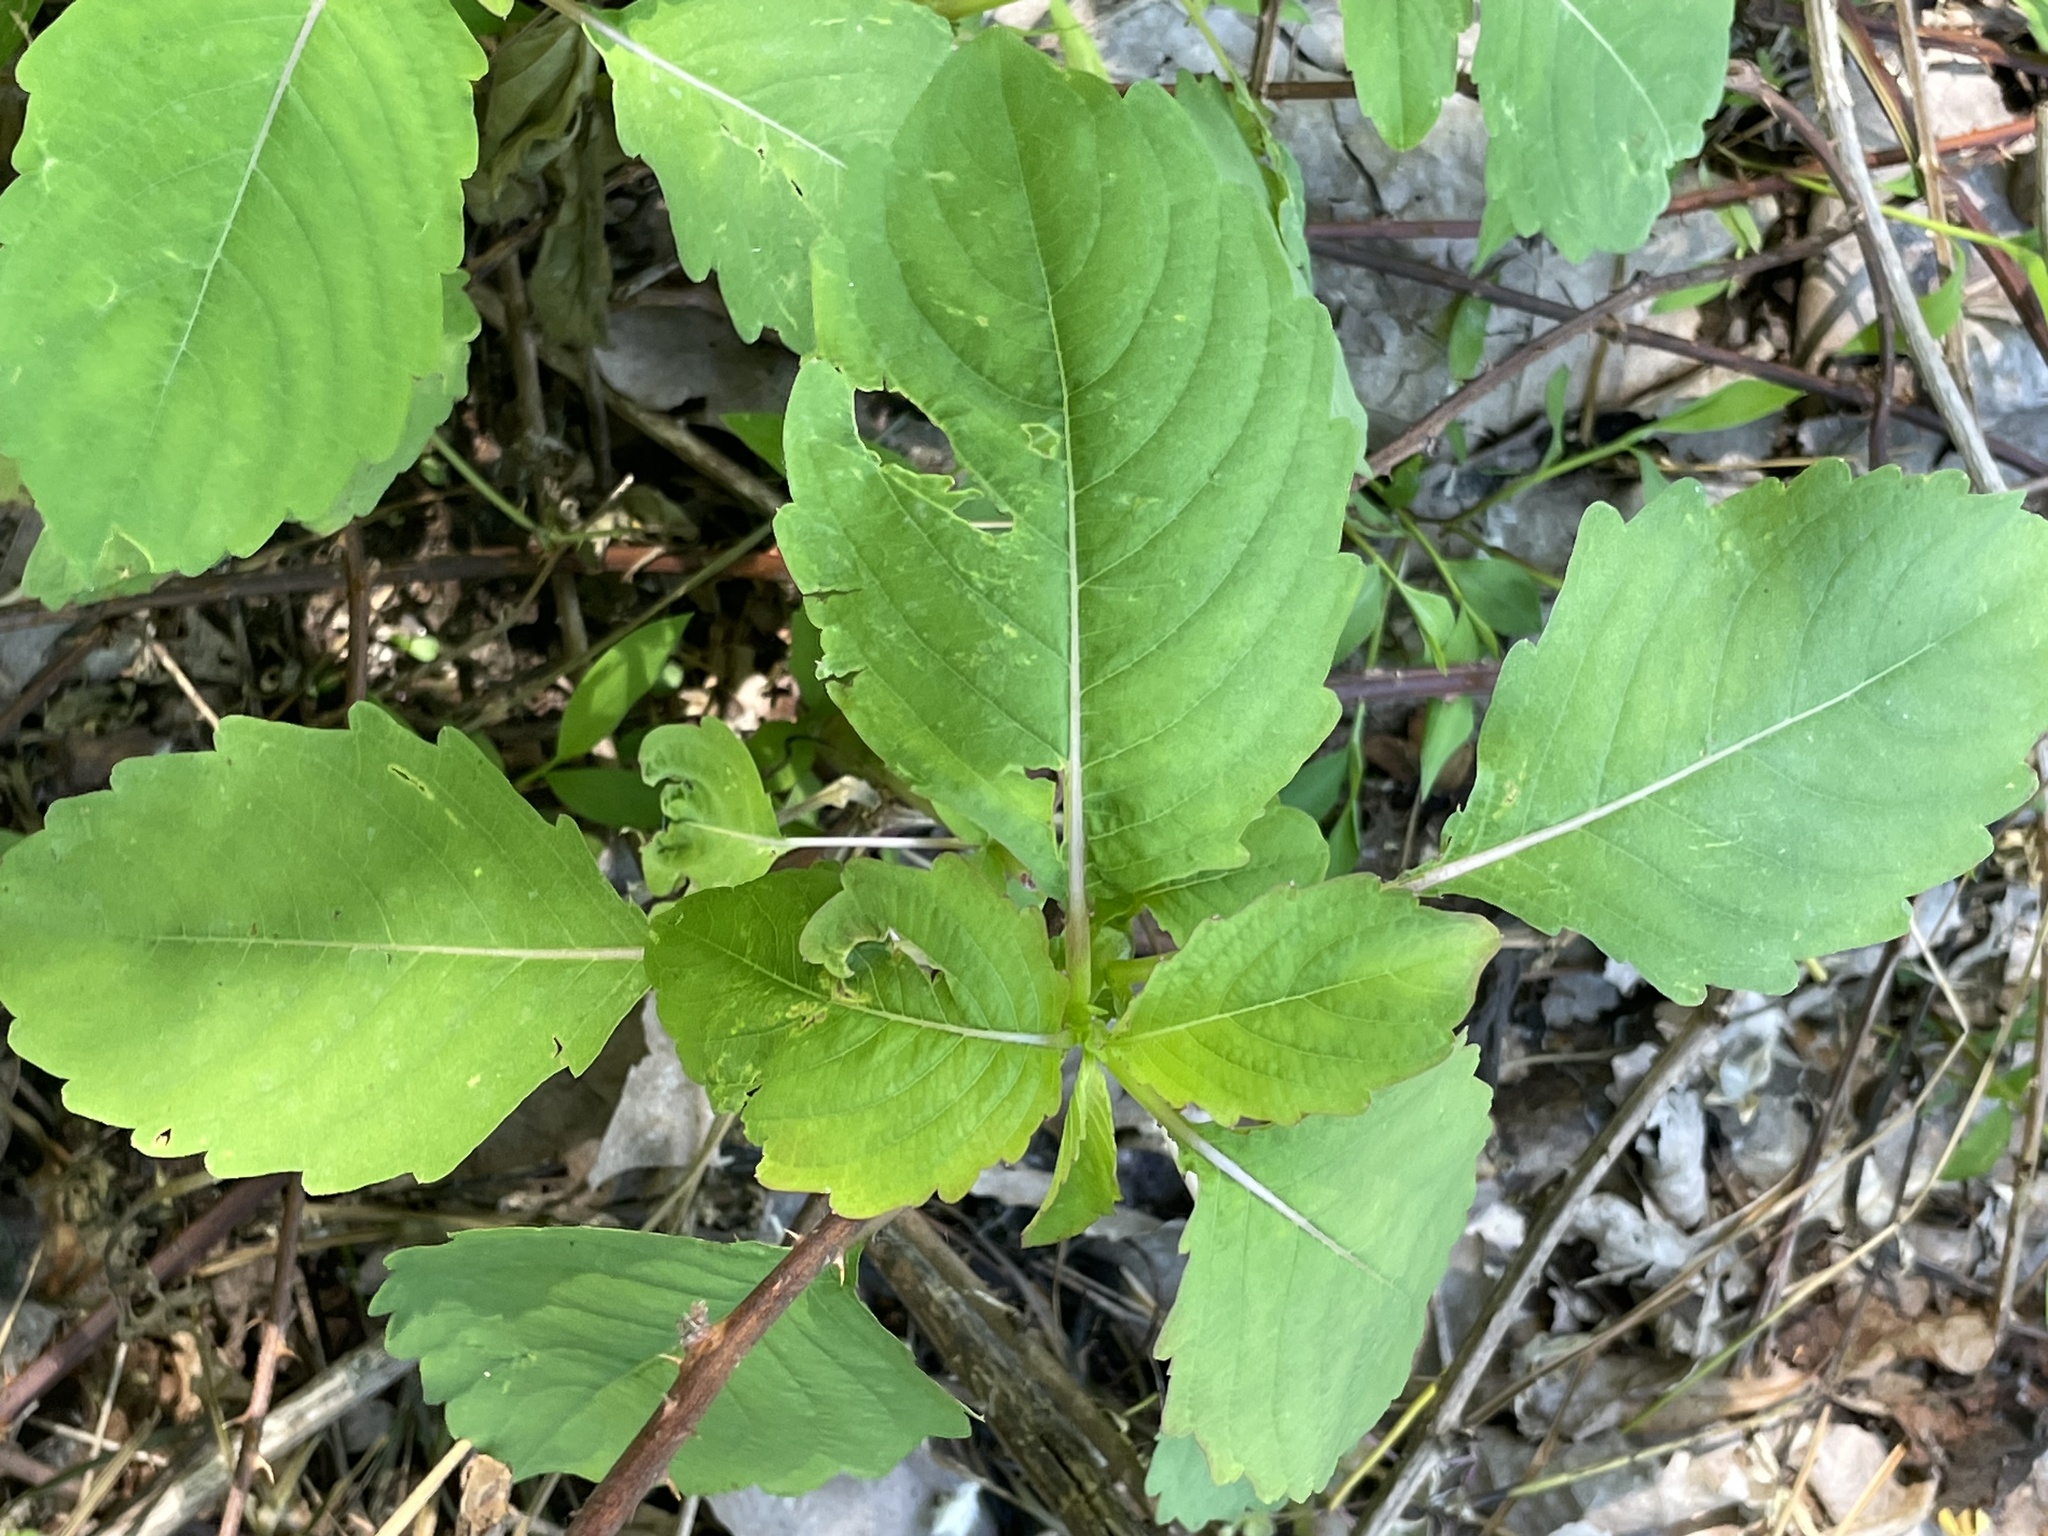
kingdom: Plantae
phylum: Tracheophyta
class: Magnoliopsida
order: Ericales
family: Balsaminaceae
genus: Impatiens
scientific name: Impatiens capensis
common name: Orange balsam
